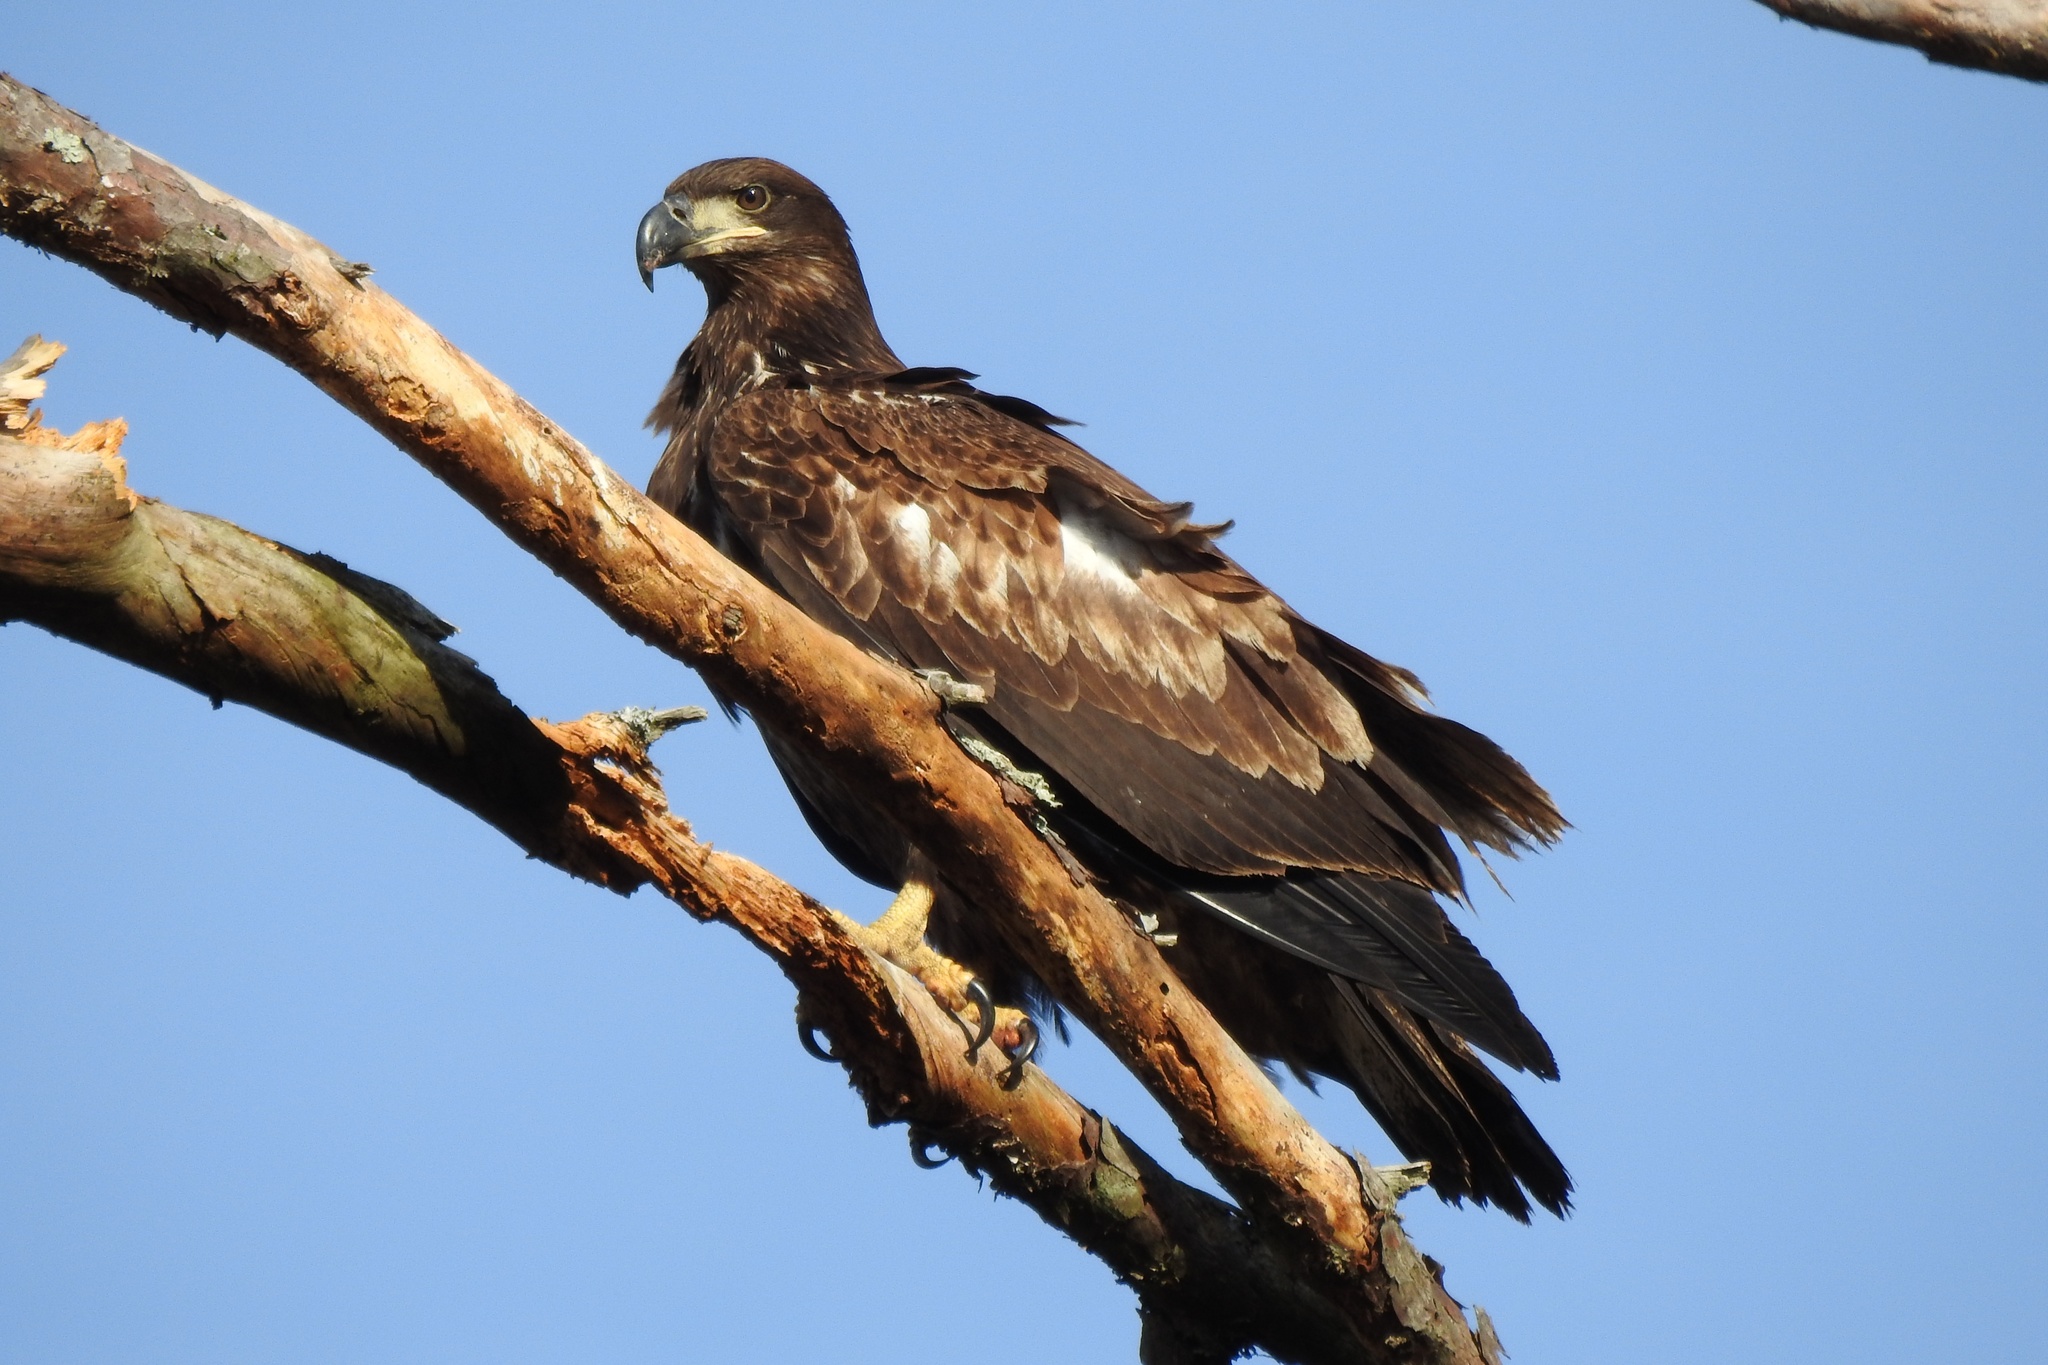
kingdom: Animalia
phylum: Chordata
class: Aves
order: Accipitriformes
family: Accipitridae
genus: Haliaeetus
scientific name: Haliaeetus leucocephalus
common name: Bald eagle
